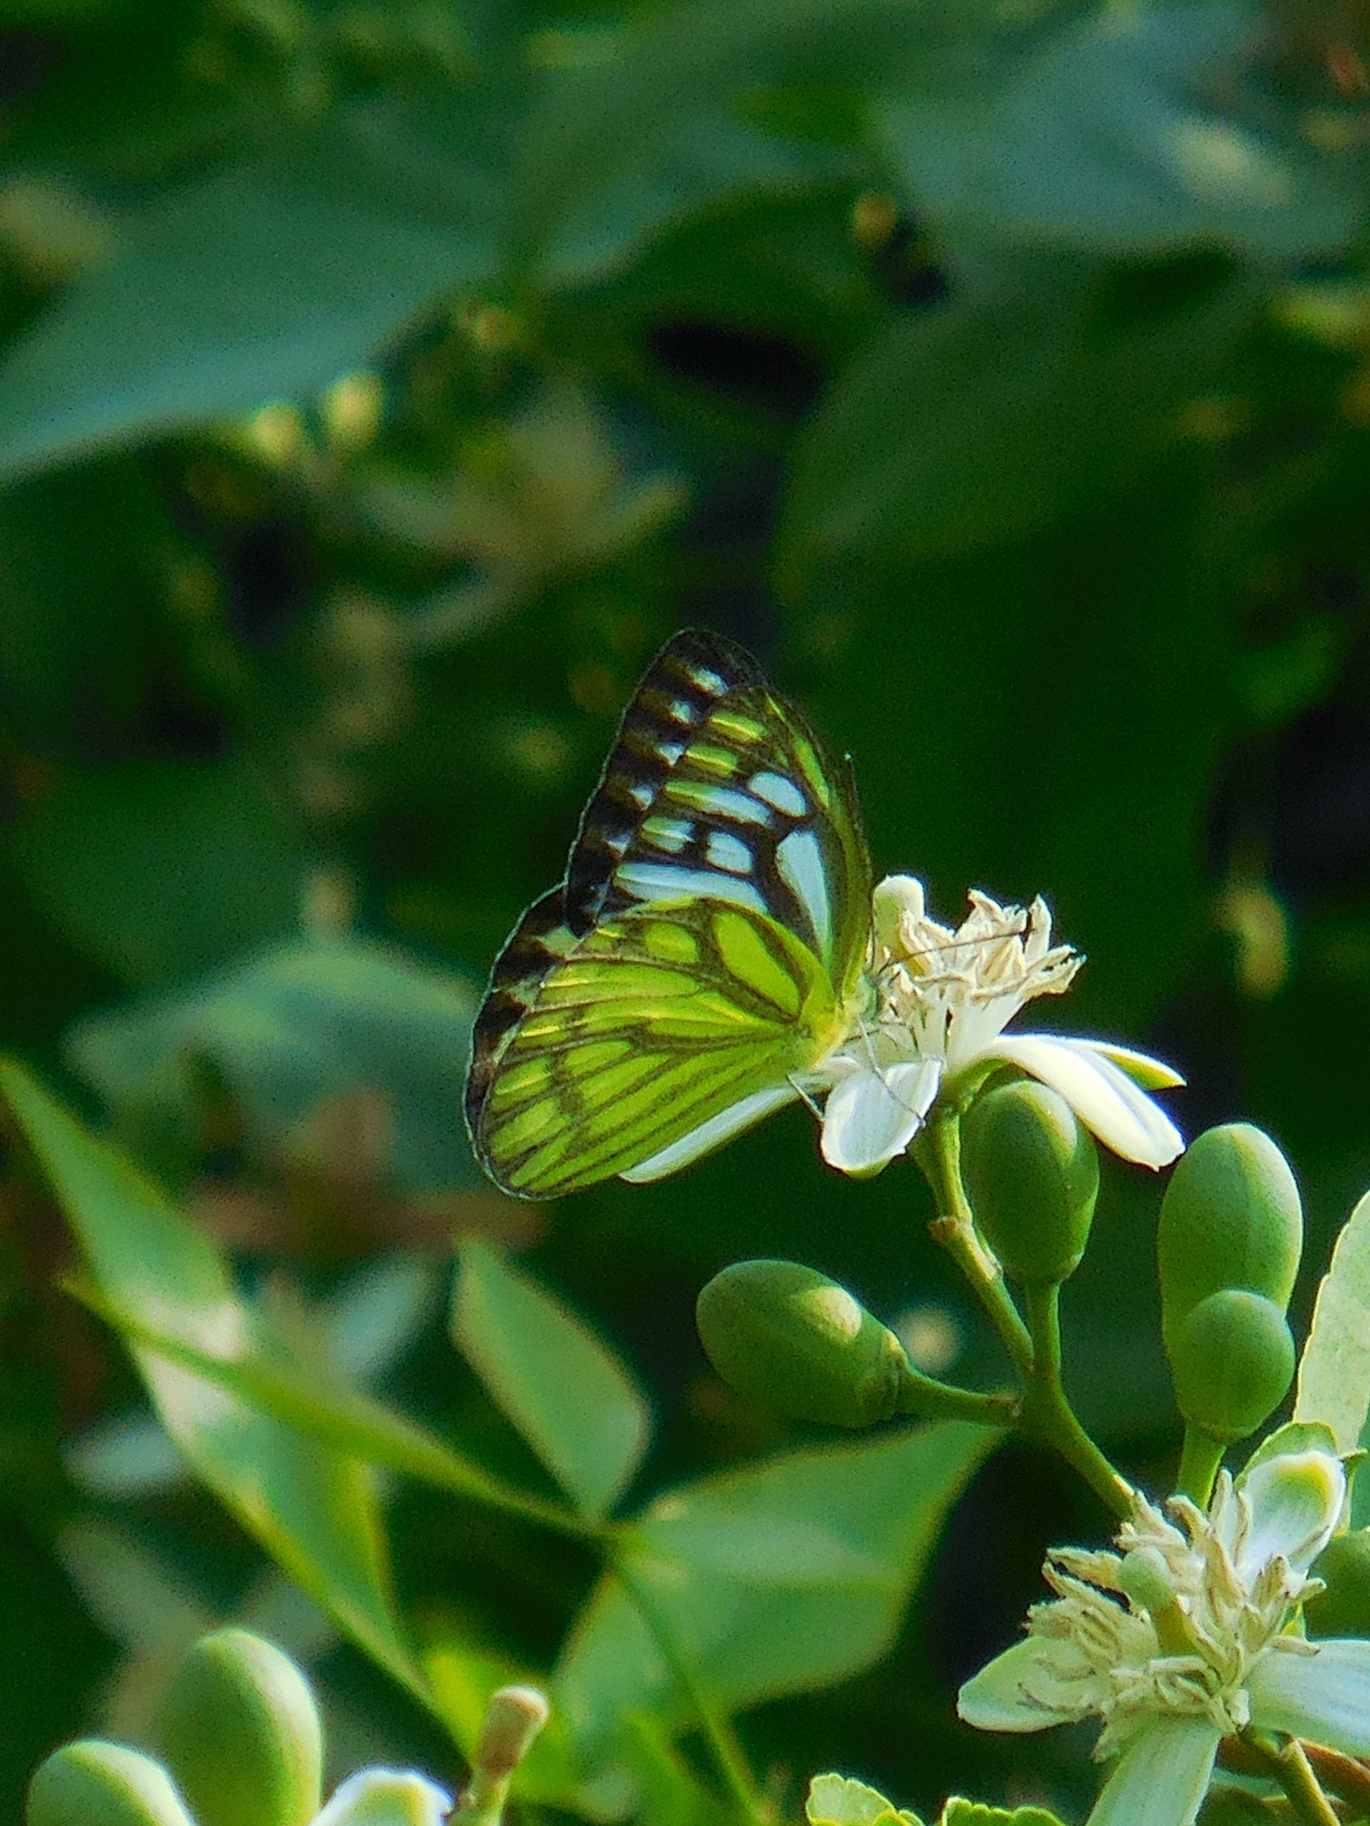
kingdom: Animalia
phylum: Arthropoda
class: Insecta
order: Lepidoptera
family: Pieridae
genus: Cepora
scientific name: Cepora nerissa
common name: Common gull
